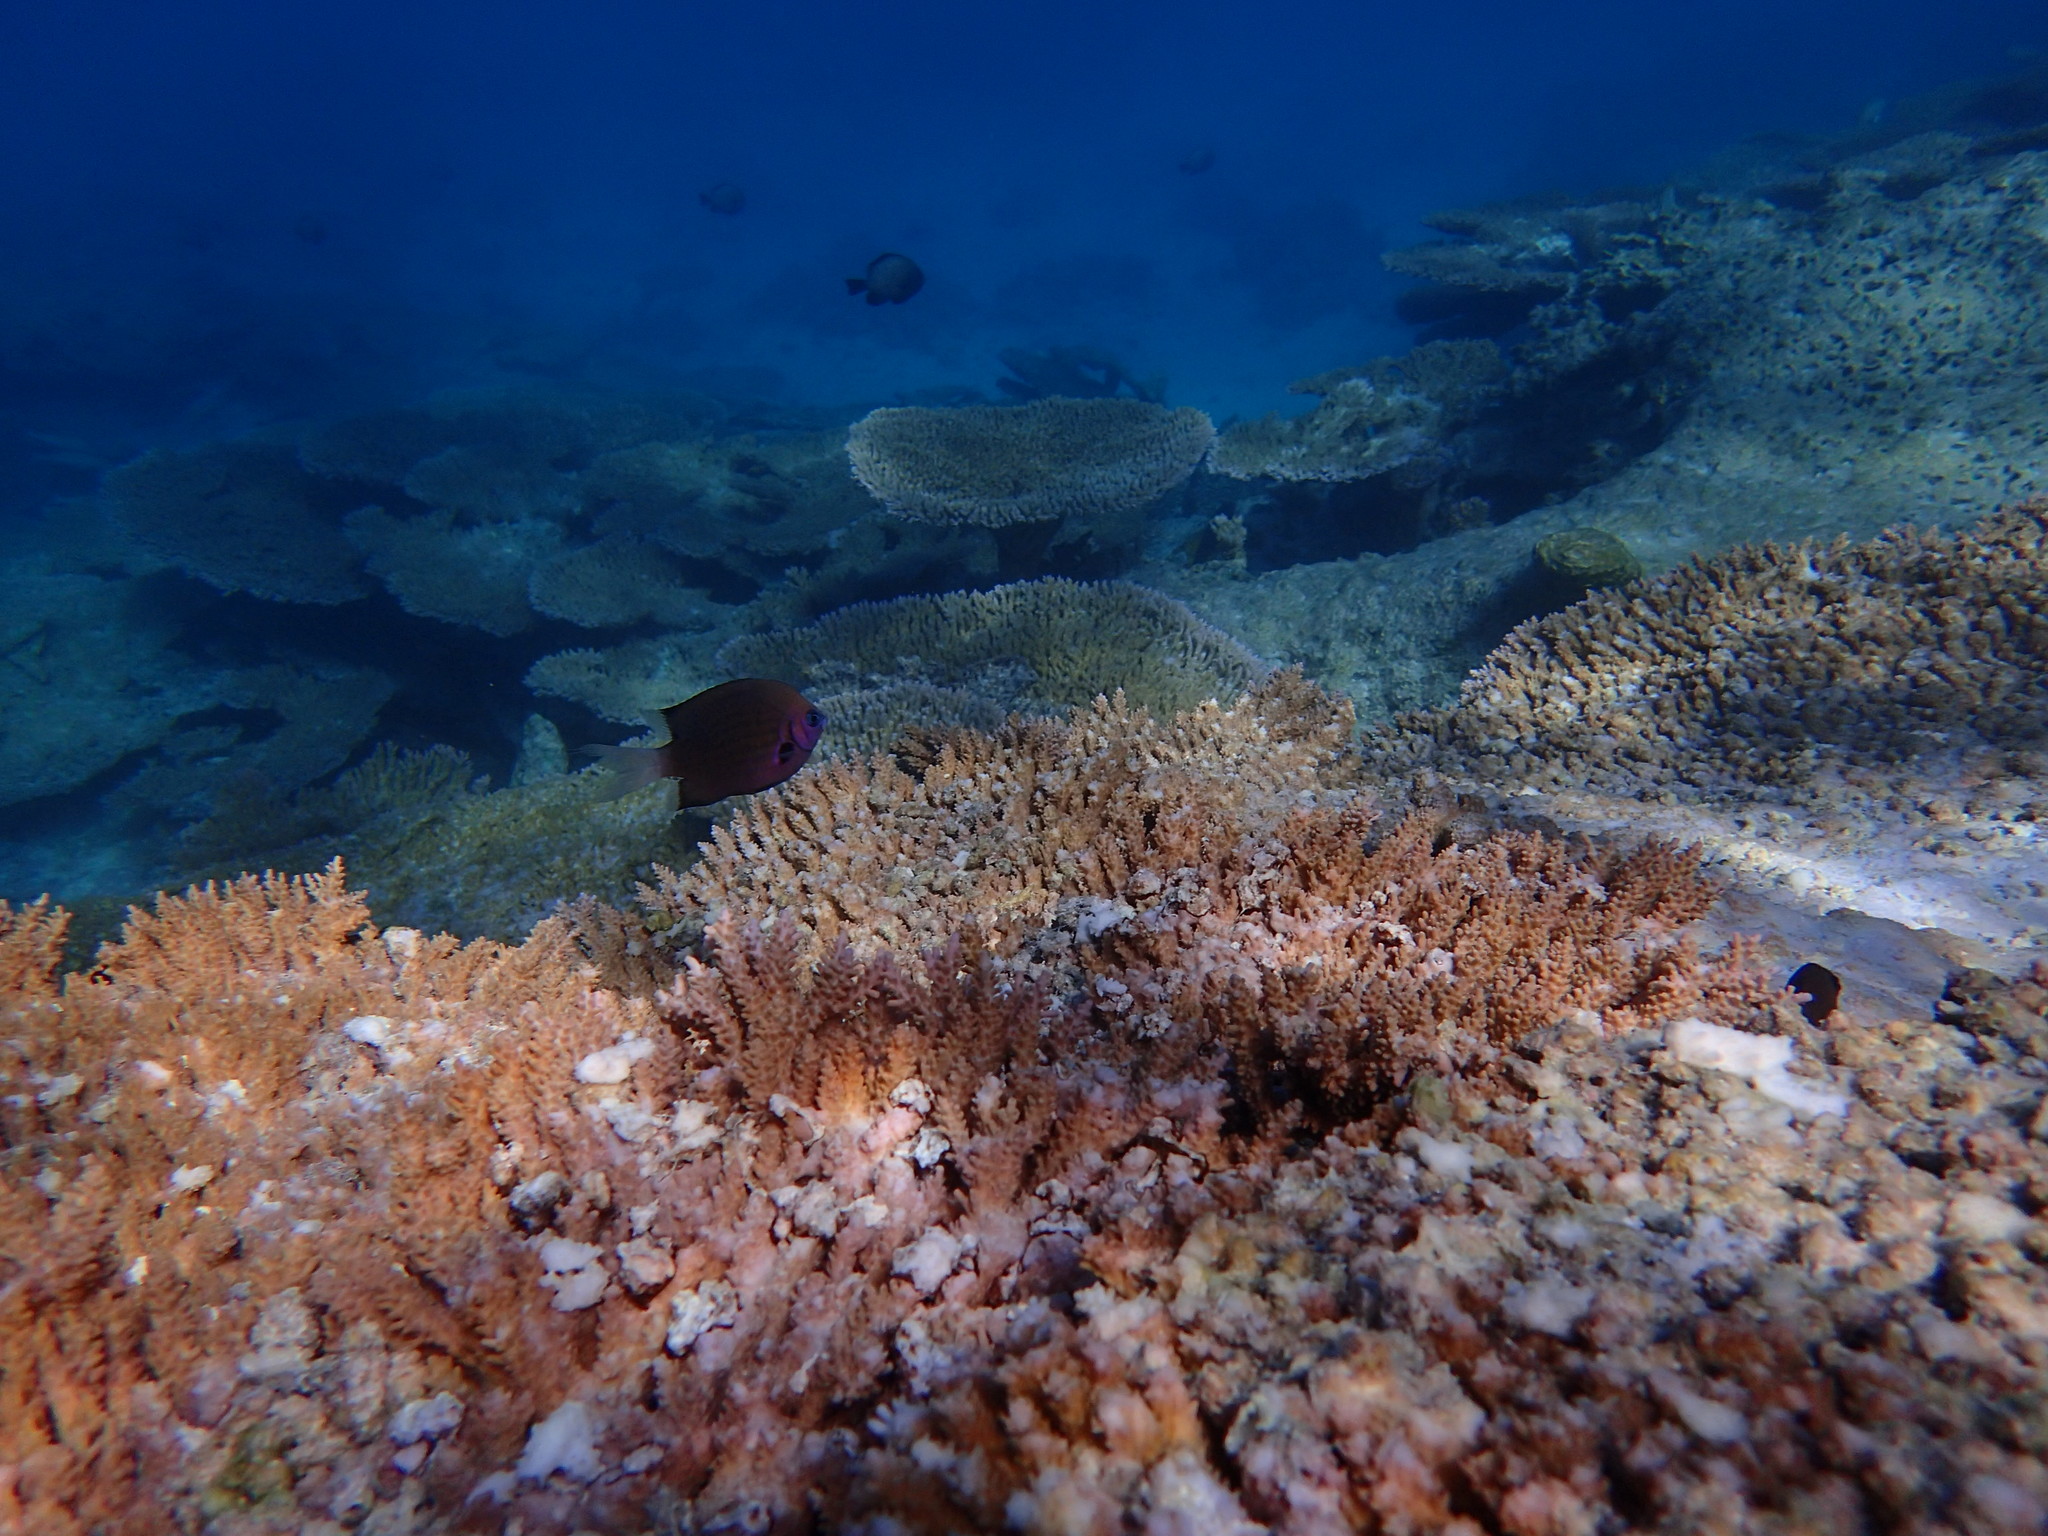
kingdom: Animalia
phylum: Chordata
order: Perciformes
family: Pomacentridae
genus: Pycnochromis
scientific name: Pycnochromis pacifica
